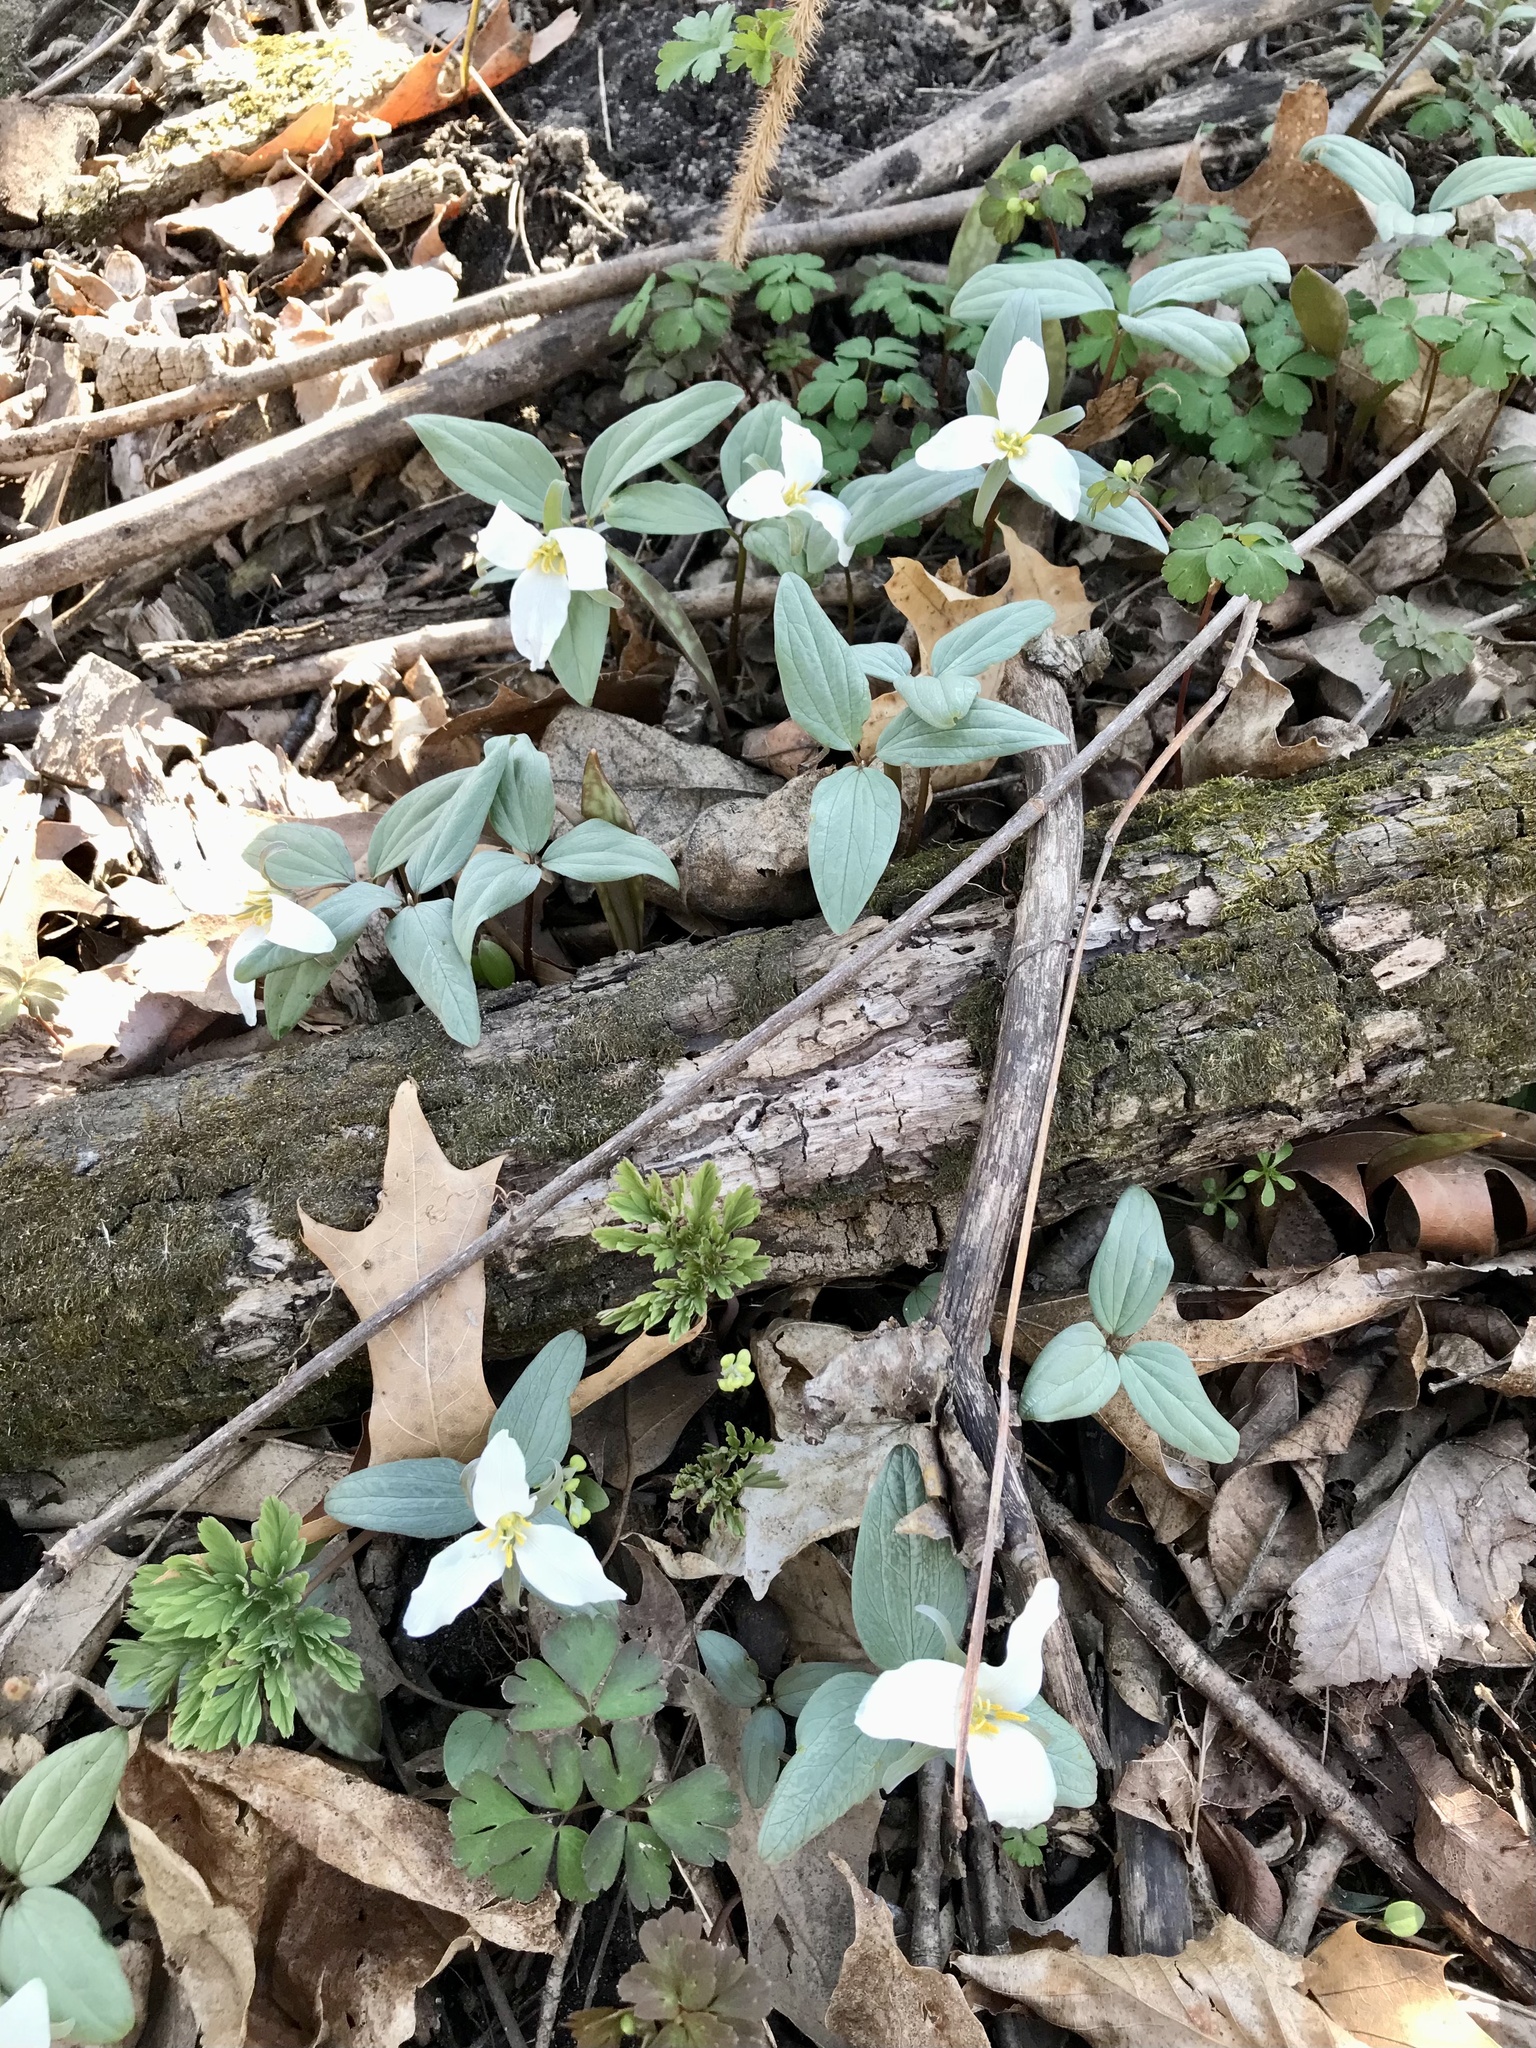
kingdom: Plantae
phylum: Tracheophyta
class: Liliopsida
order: Liliales
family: Melanthiaceae
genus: Trillium
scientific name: Trillium nivale
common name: Dwarf white trillium
